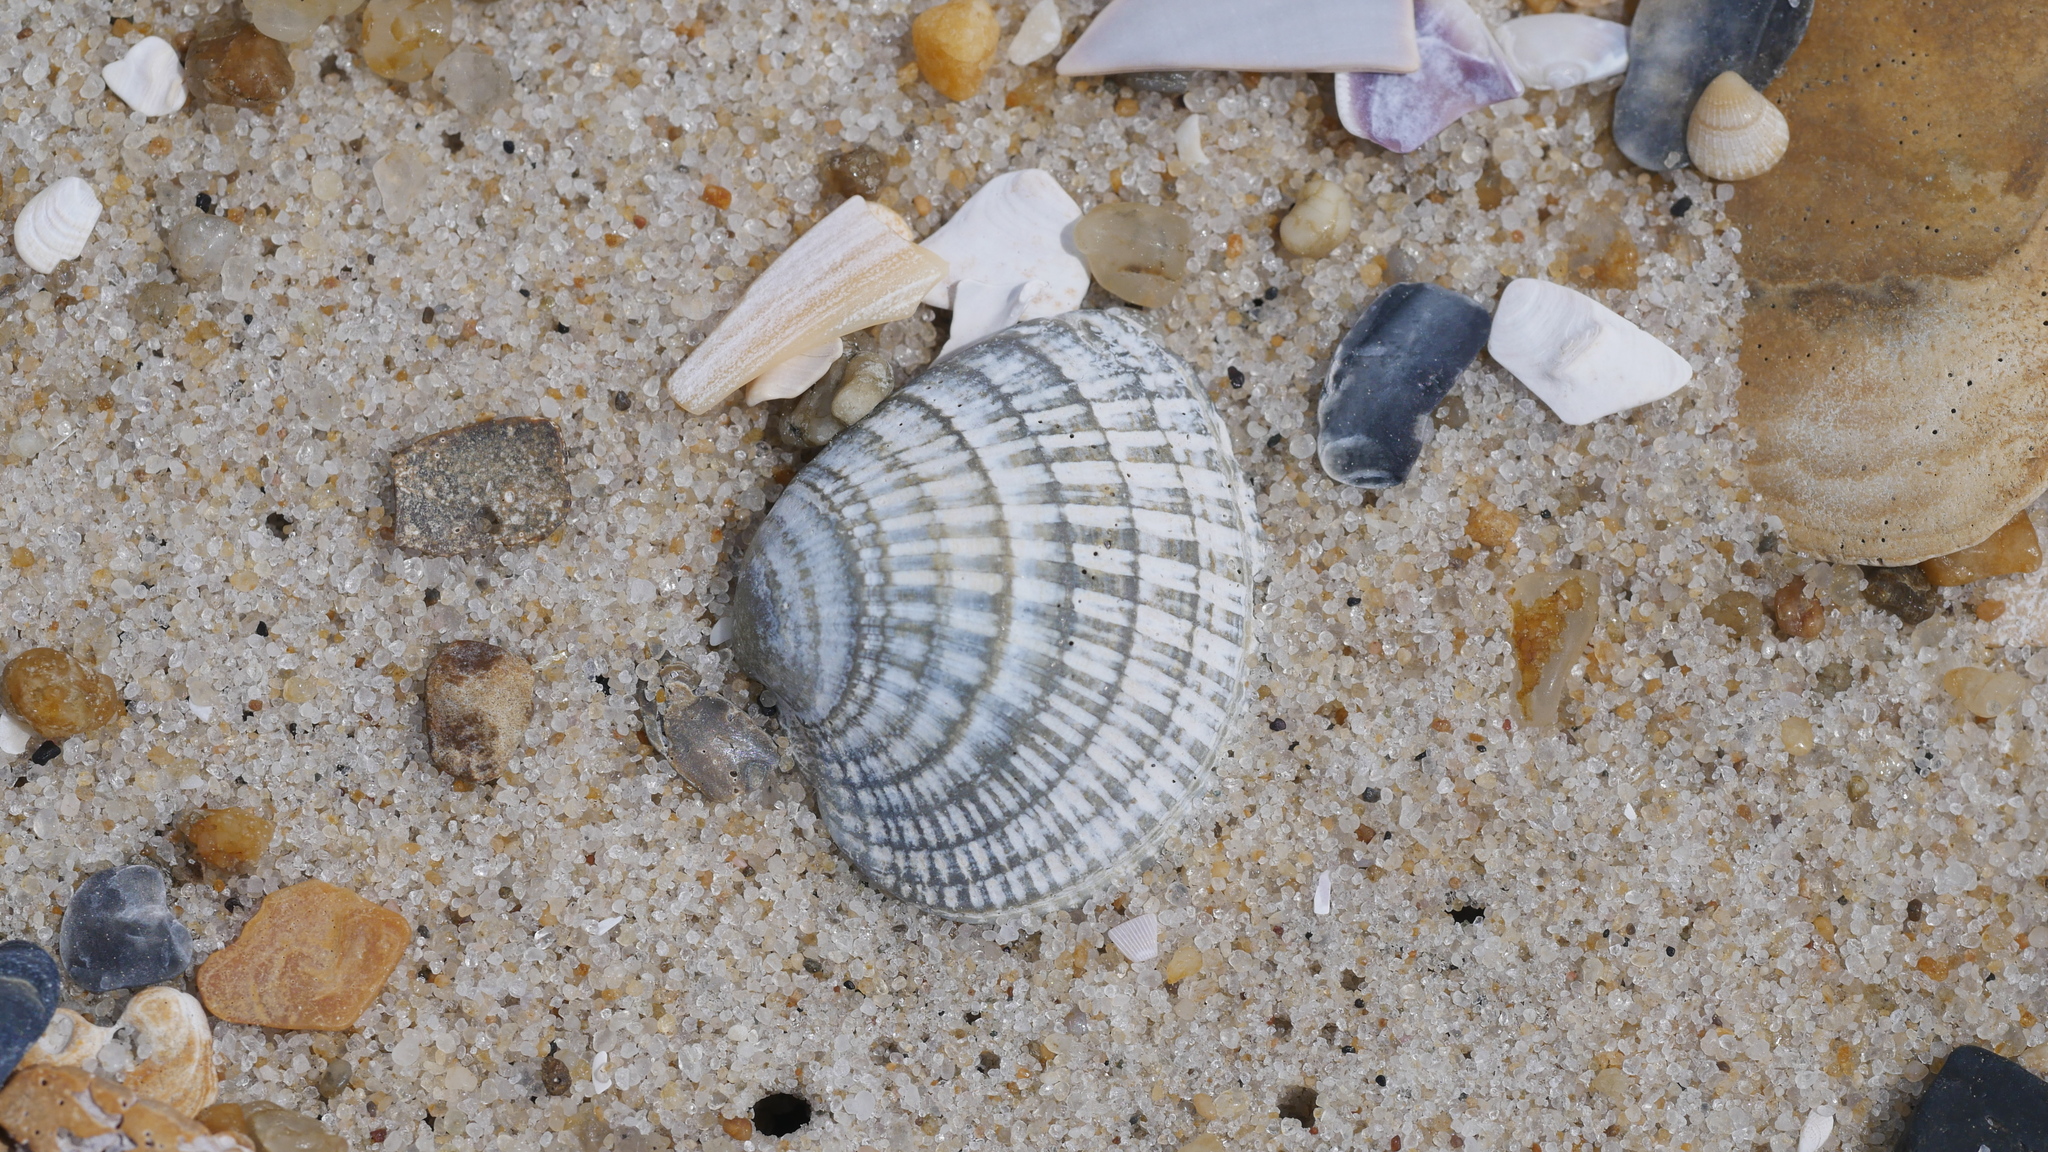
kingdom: Animalia
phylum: Mollusca
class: Bivalvia
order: Venerida
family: Veneridae
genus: Chione
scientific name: Chione elevata
